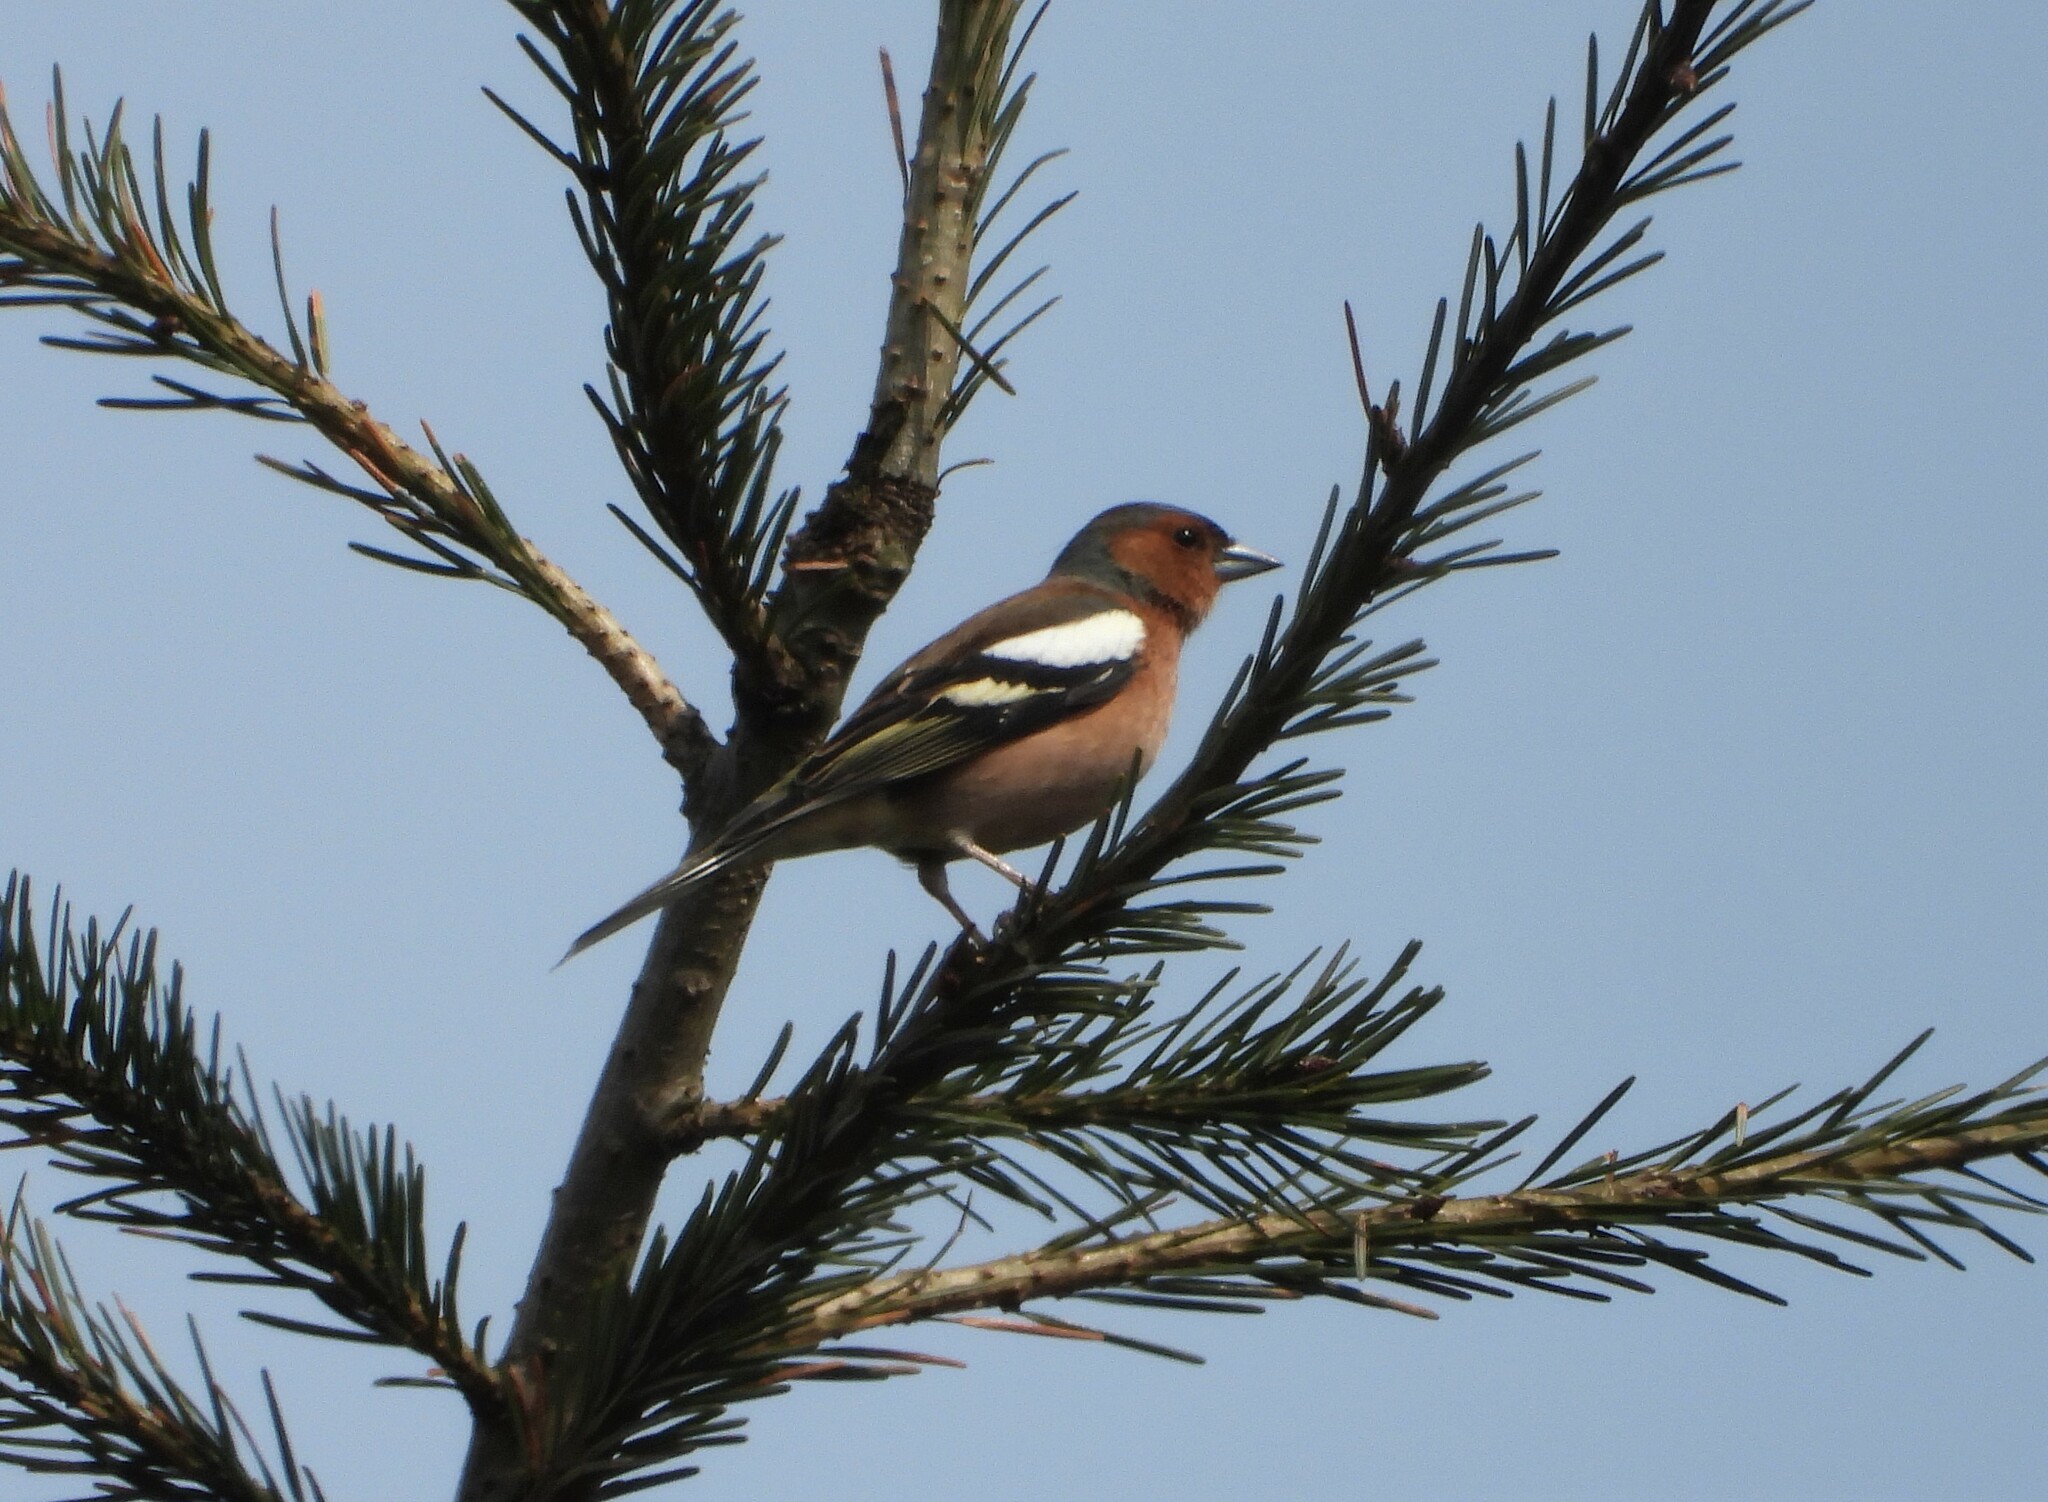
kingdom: Animalia
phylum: Chordata
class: Aves
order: Passeriformes
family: Fringillidae
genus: Fringilla
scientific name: Fringilla coelebs
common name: Common chaffinch
